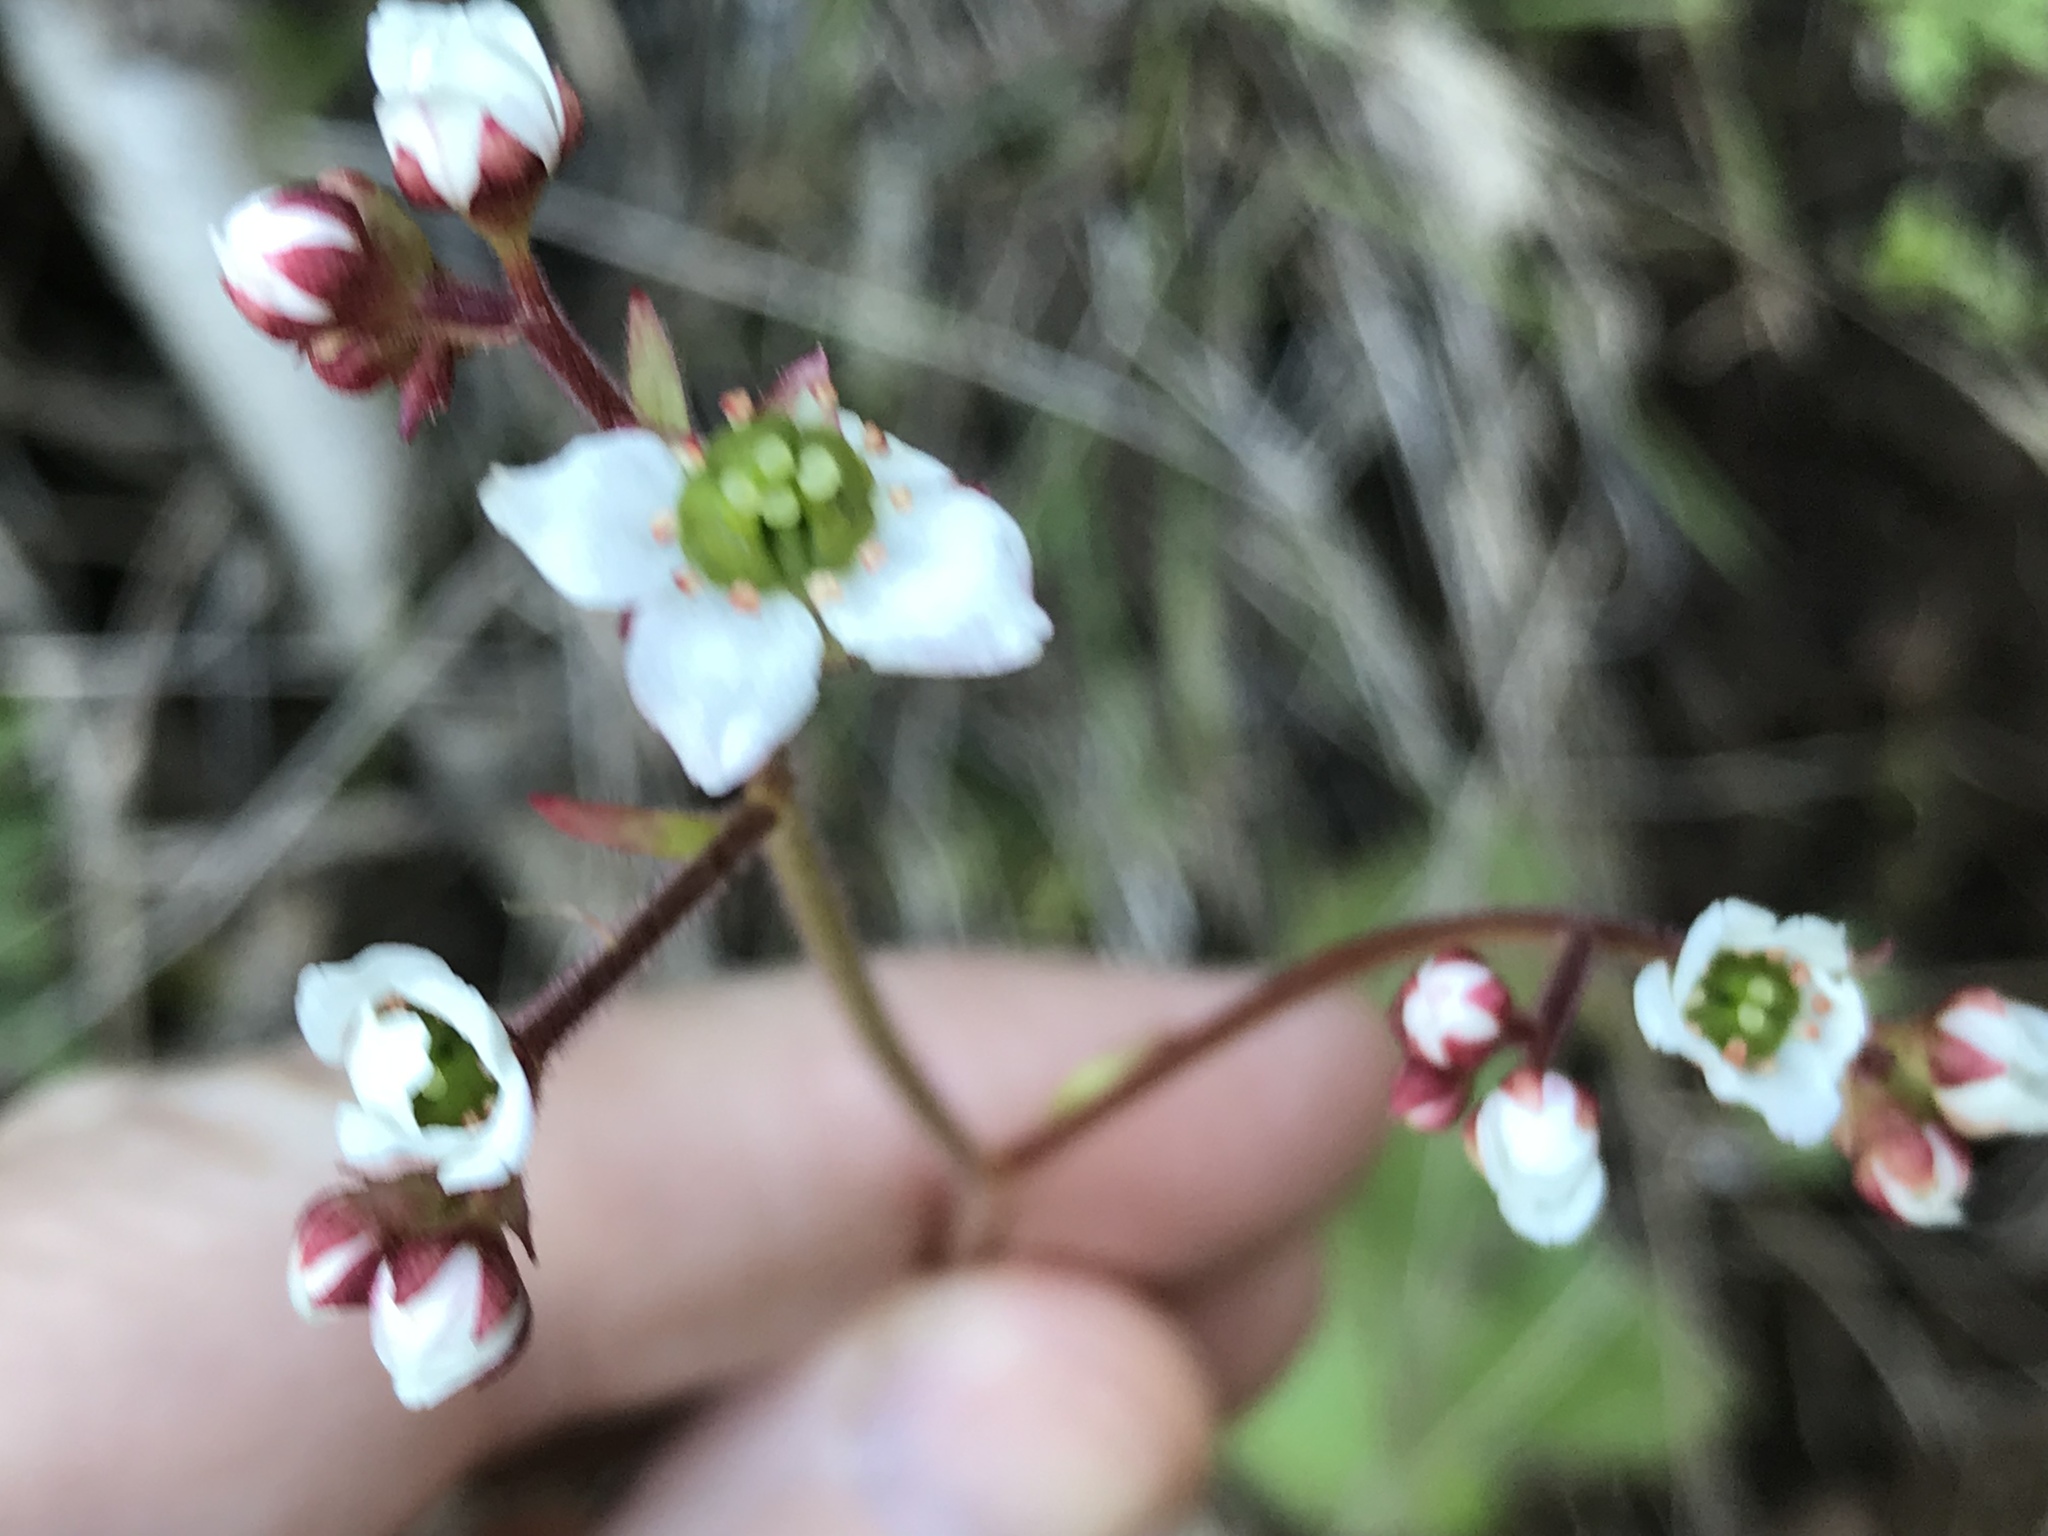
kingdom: Plantae
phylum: Tracheophyta
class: Magnoliopsida
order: Saxifragales
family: Saxifragaceae
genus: Micranthes
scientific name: Micranthes californica
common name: California saxifrage
